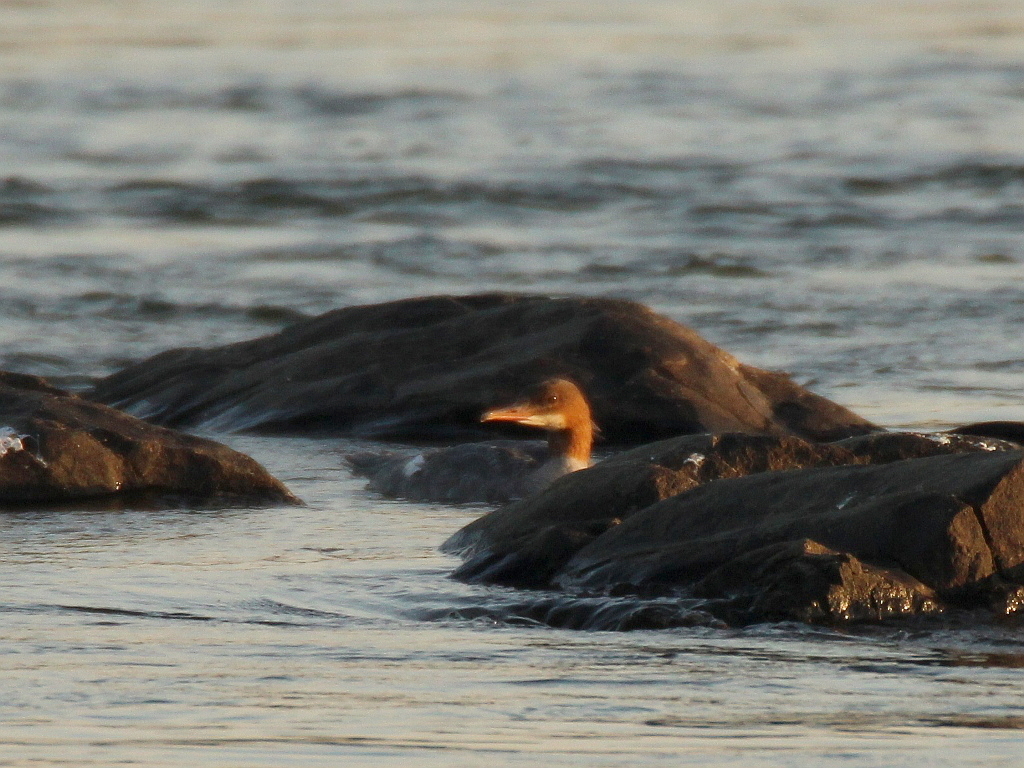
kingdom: Animalia
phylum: Chordata
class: Aves
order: Anseriformes
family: Anatidae
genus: Mergus
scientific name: Mergus merganser
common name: Common merganser
